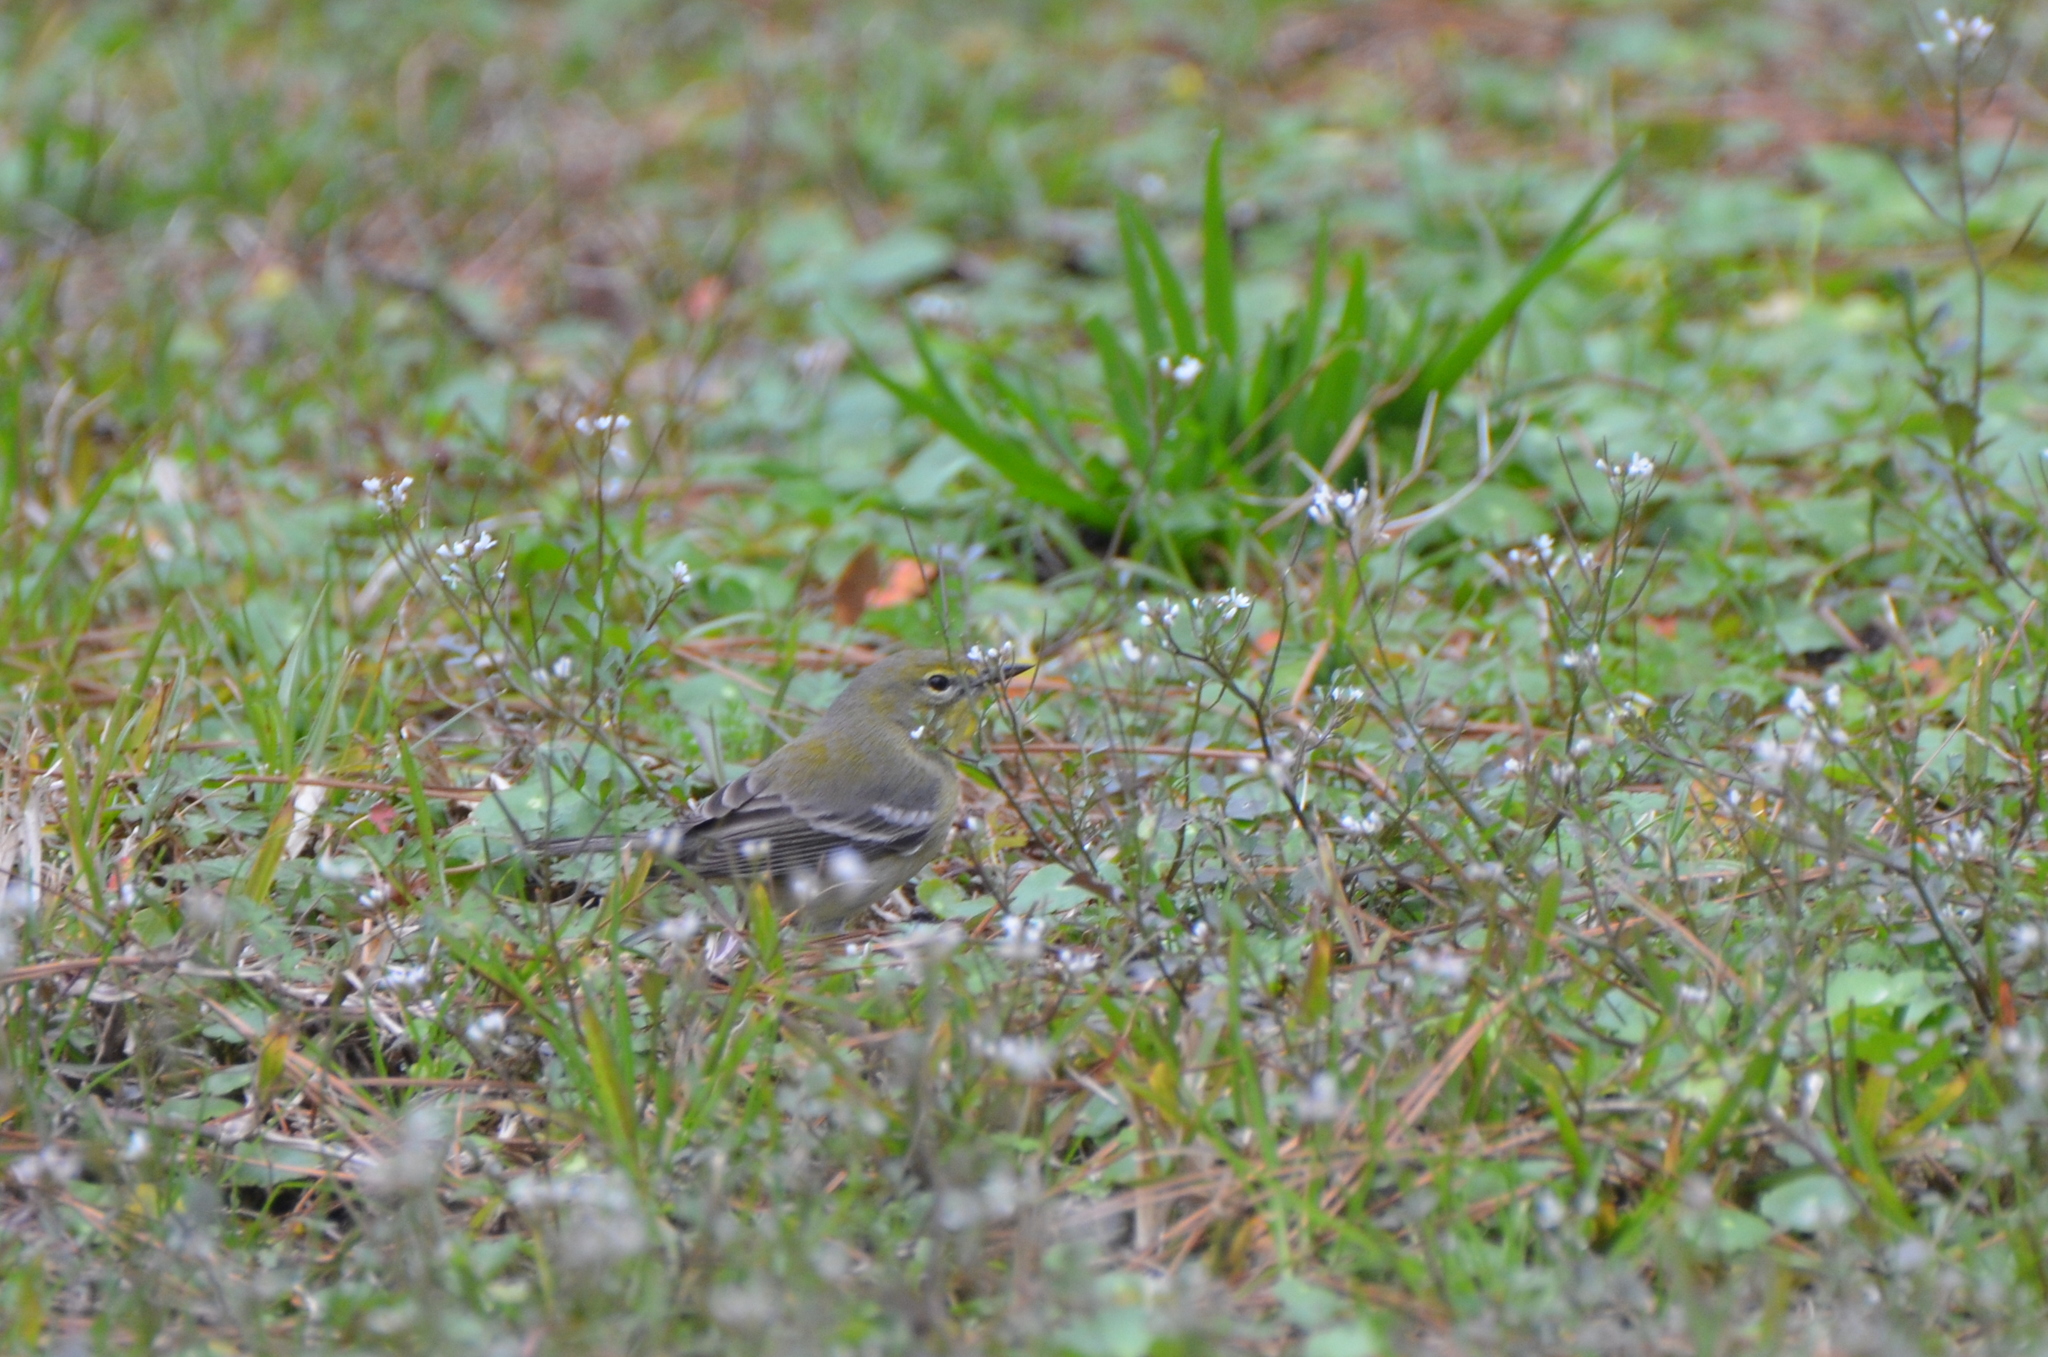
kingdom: Animalia
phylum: Chordata
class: Aves
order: Passeriformes
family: Parulidae
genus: Setophaga
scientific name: Setophaga pinus
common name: Pine warbler
